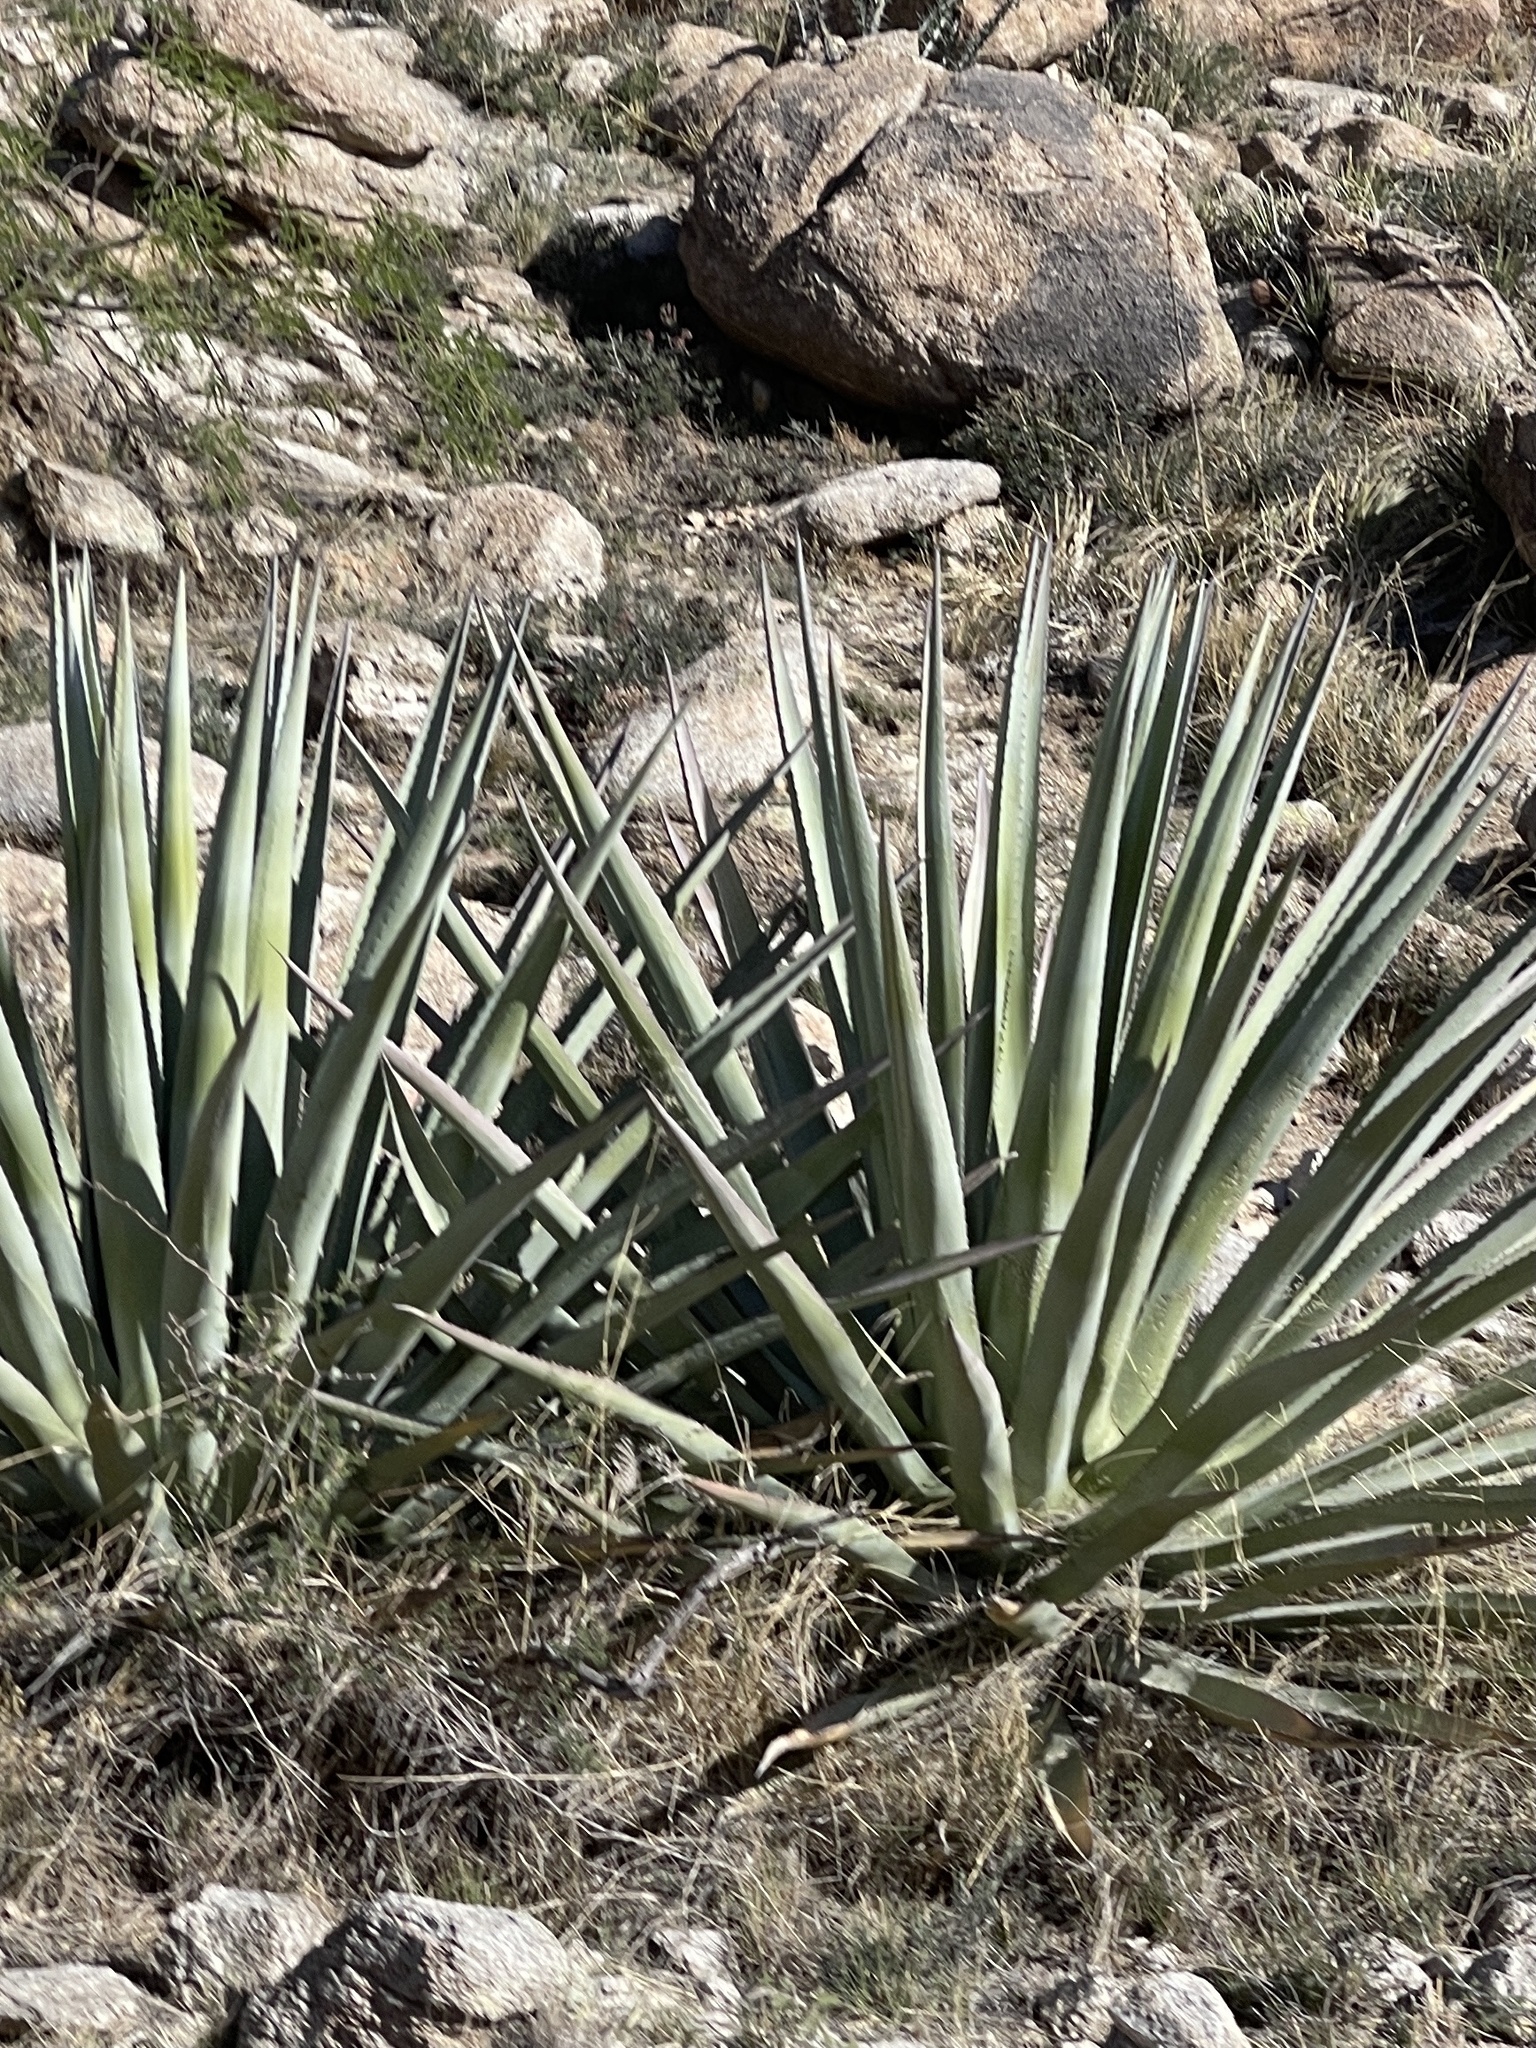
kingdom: Plantae
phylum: Tracheophyta
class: Liliopsida
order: Asparagales
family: Asparagaceae
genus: Agave
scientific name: Agave palmeri
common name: Palmer agave
